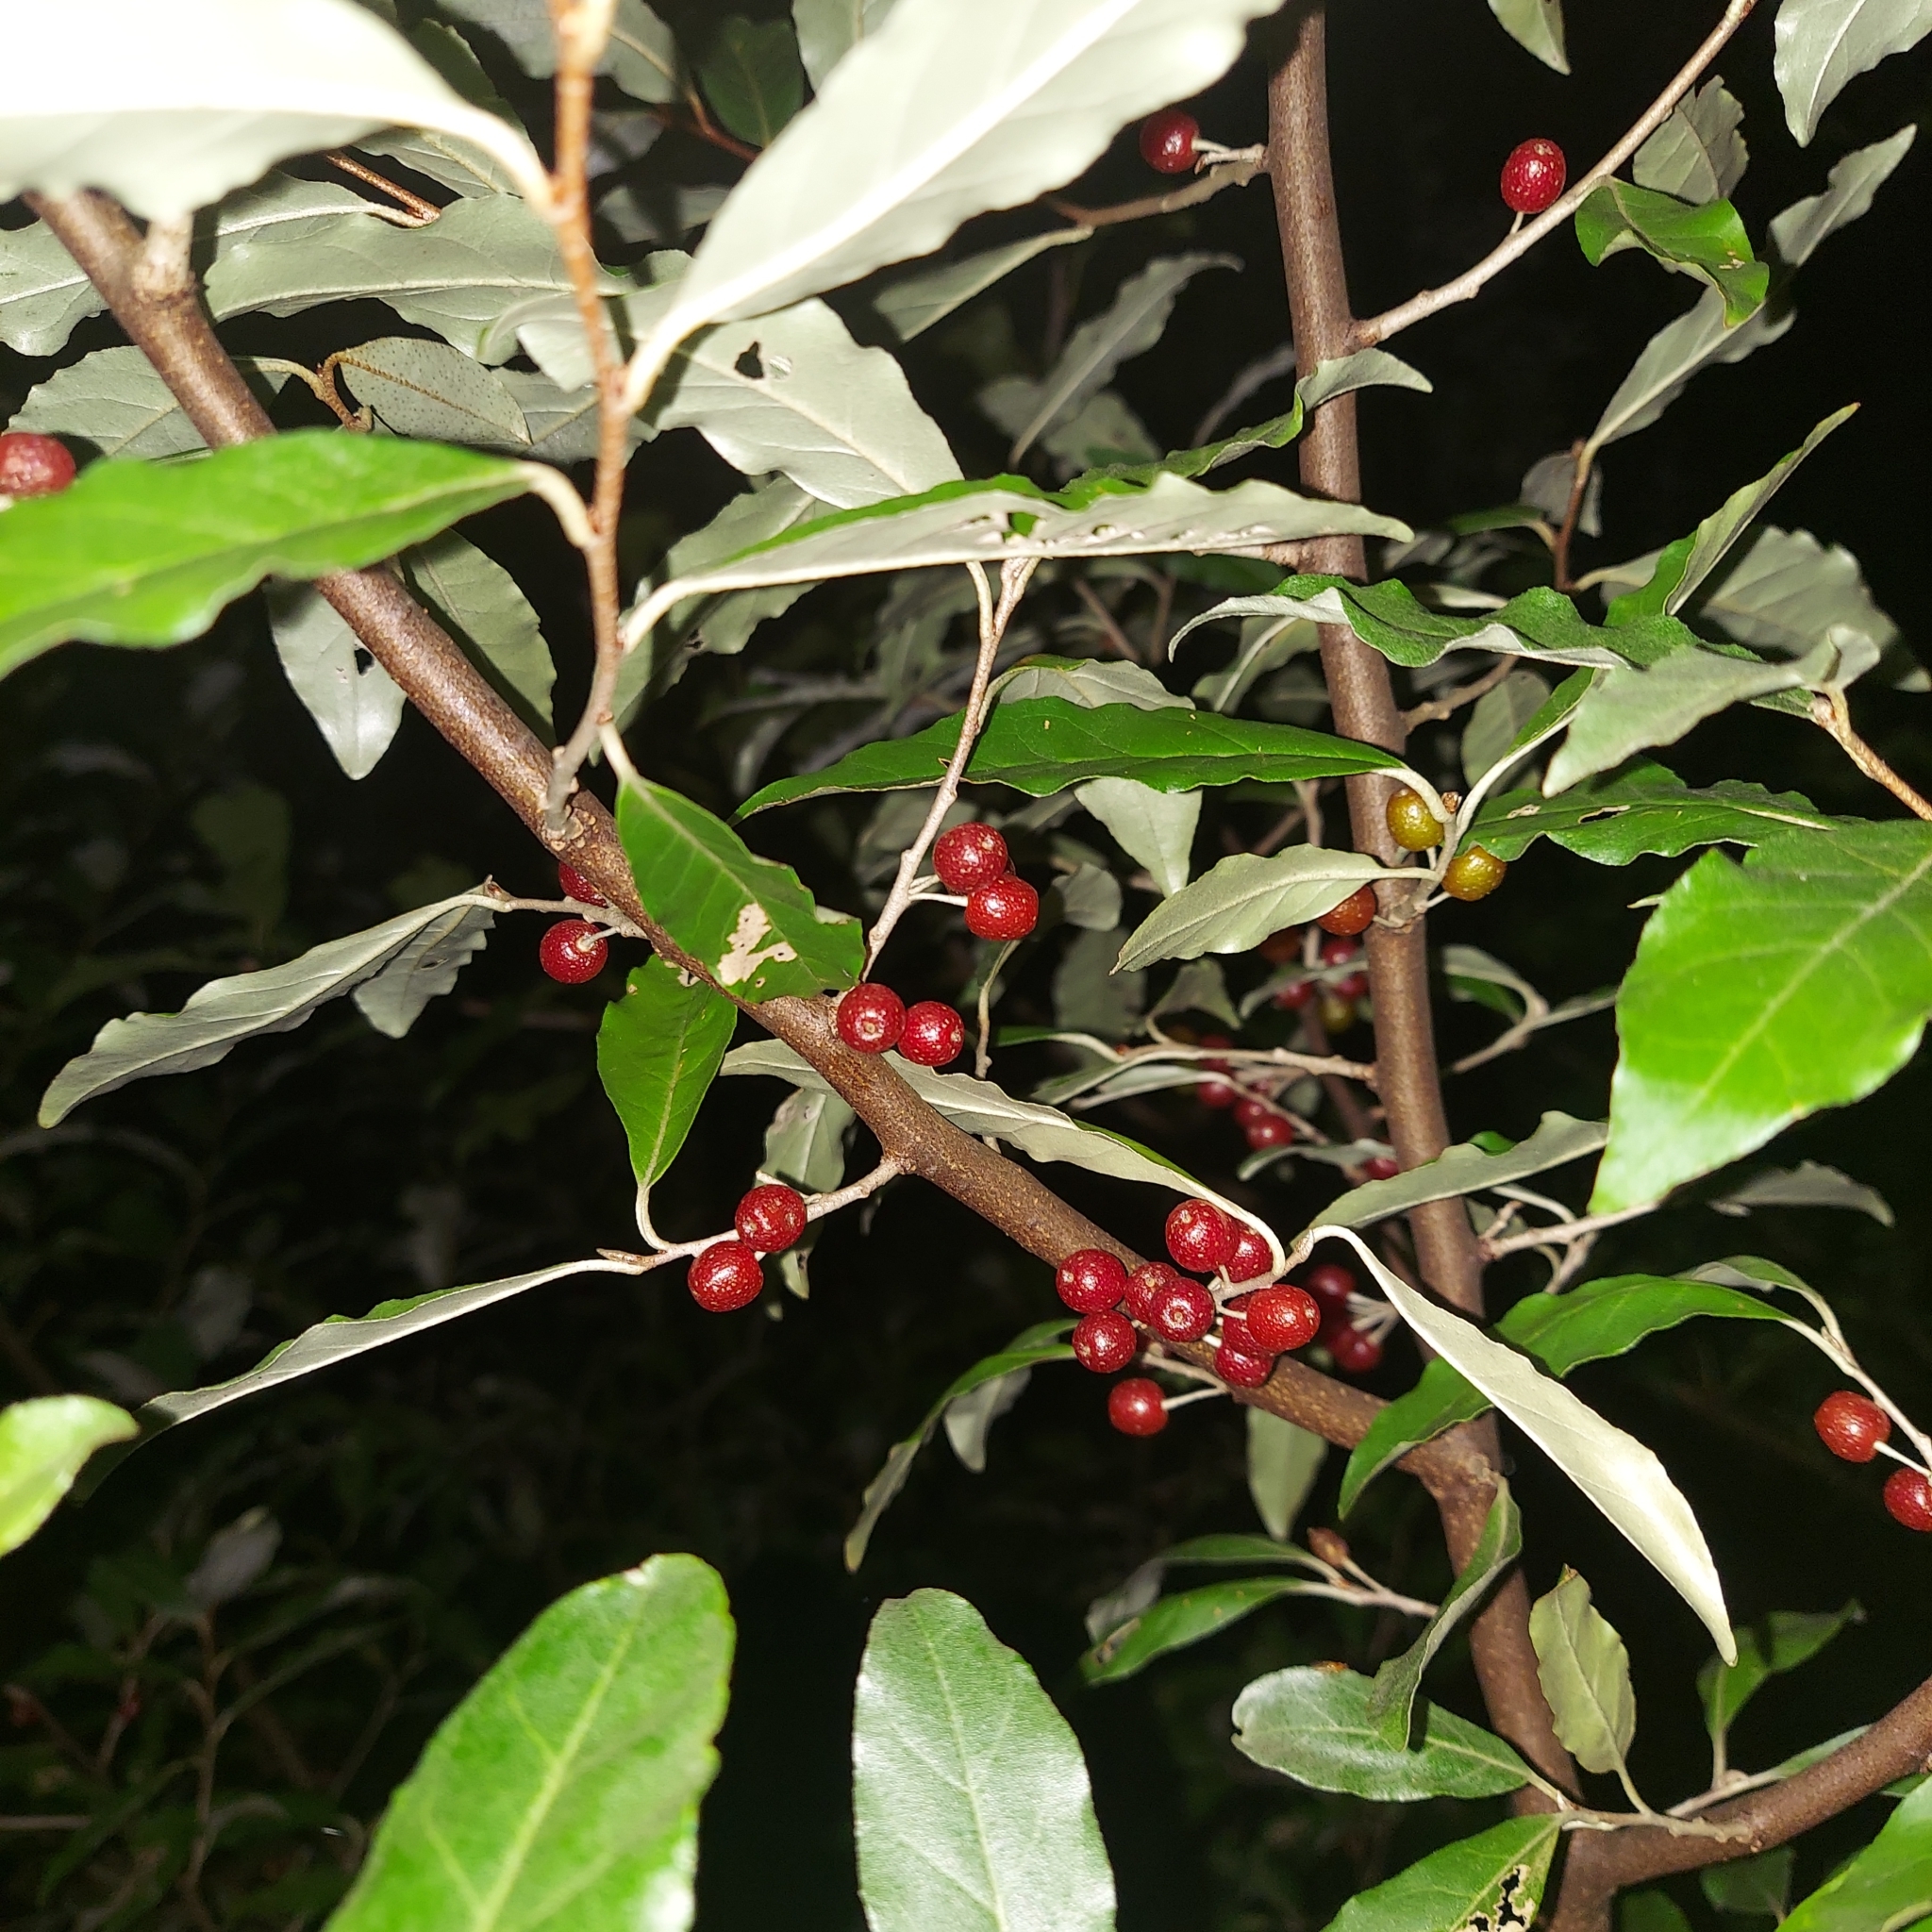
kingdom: Plantae
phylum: Tracheophyta
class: Magnoliopsida
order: Rosales
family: Elaeagnaceae
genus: Elaeagnus
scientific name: Elaeagnus umbellata
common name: Autumn olive
